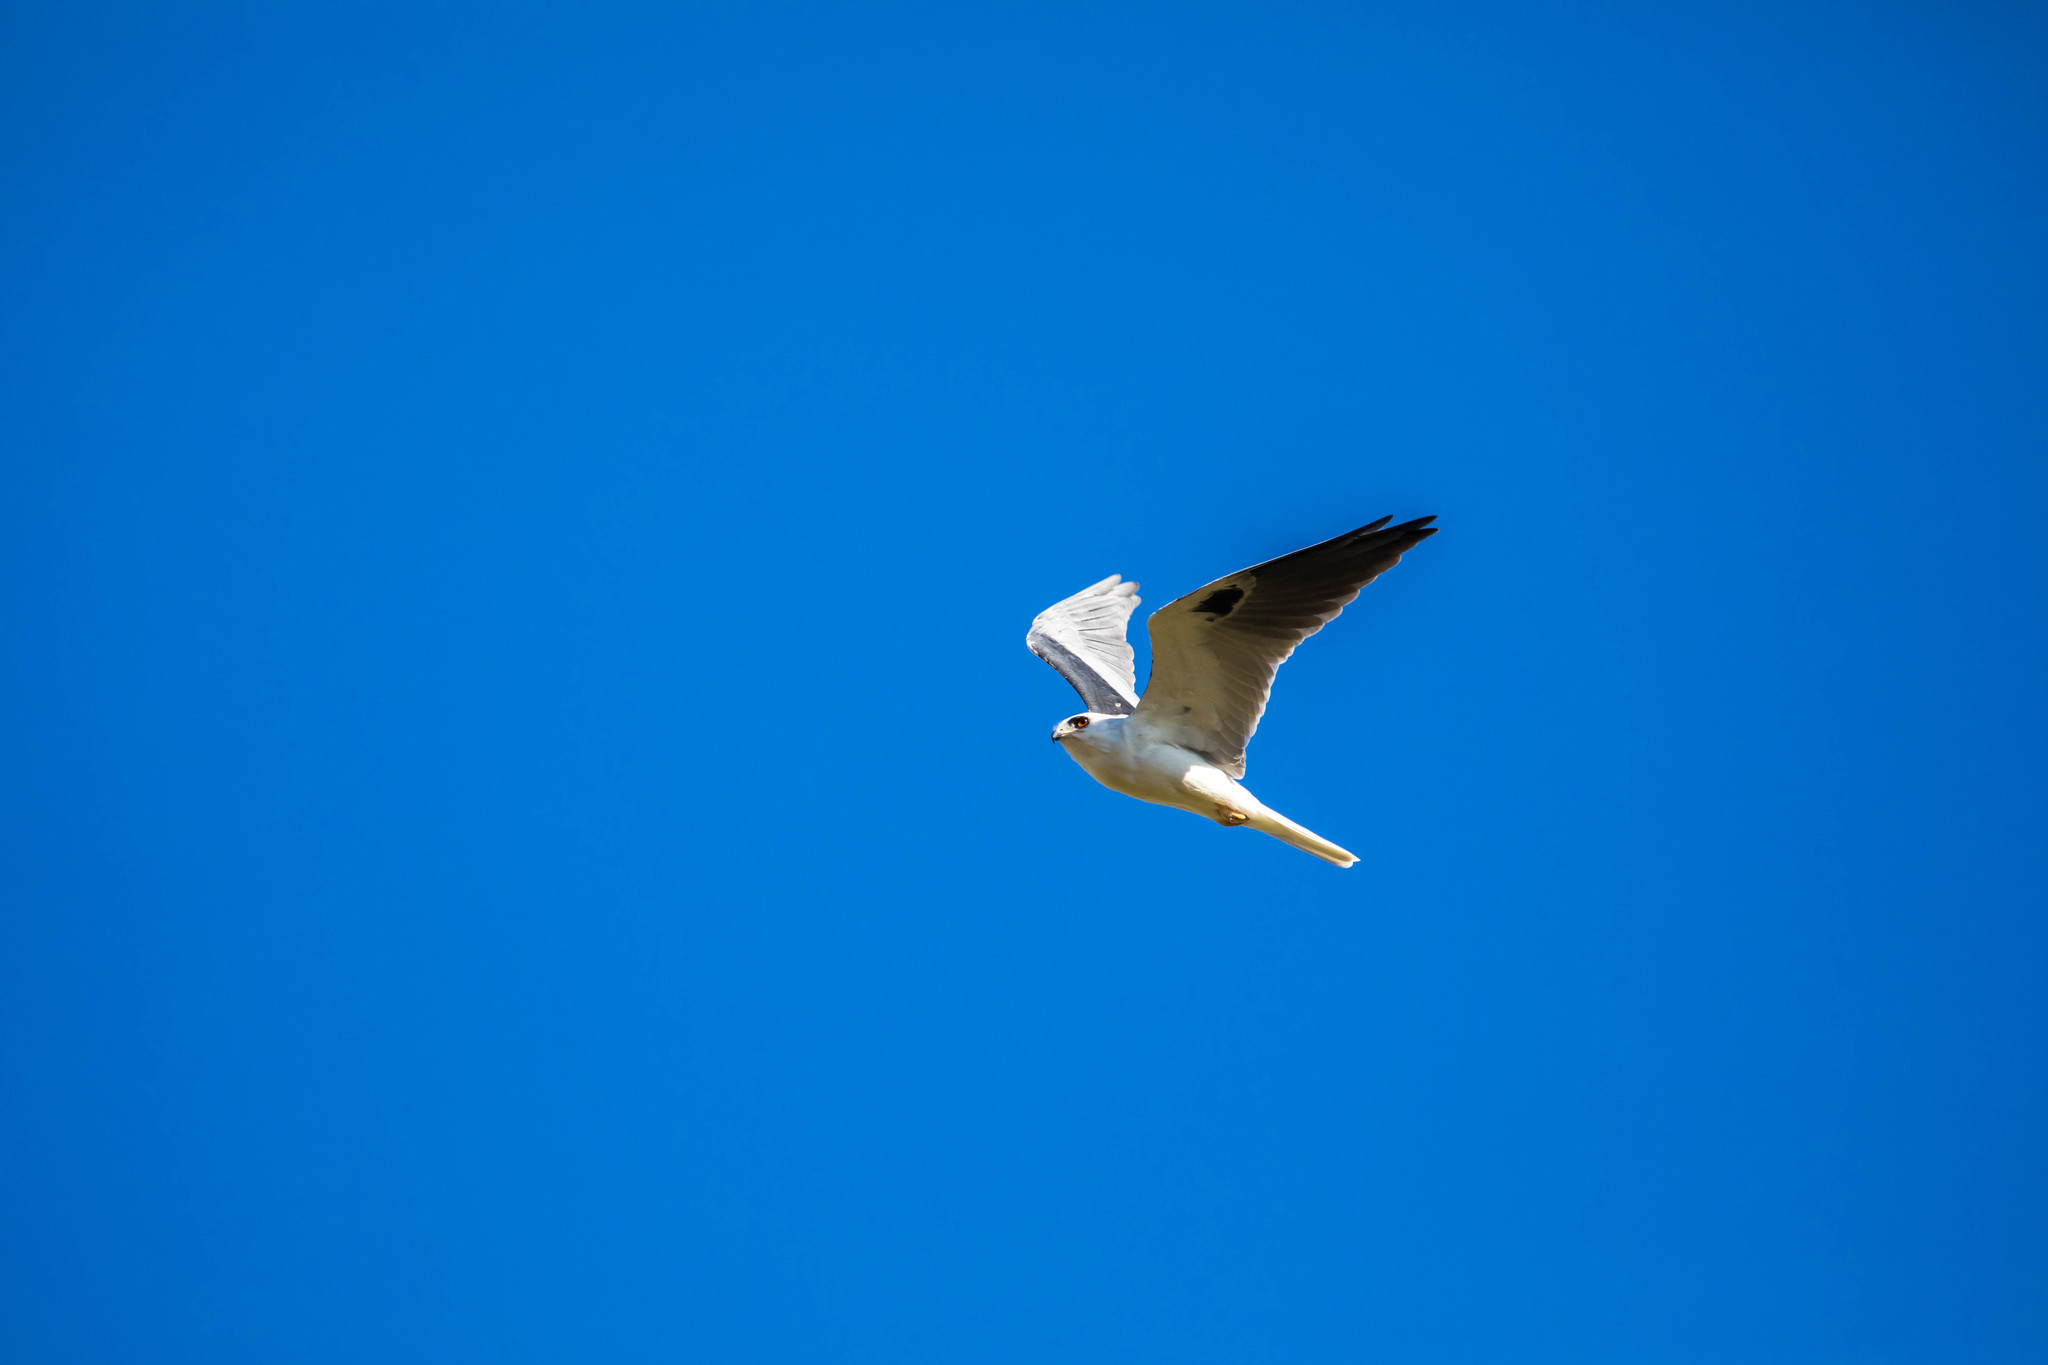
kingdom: Animalia
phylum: Chordata
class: Aves
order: Accipitriformes
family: Accipitridae
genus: Elanus
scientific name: Elanus leucurus
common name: White-tailed kite
